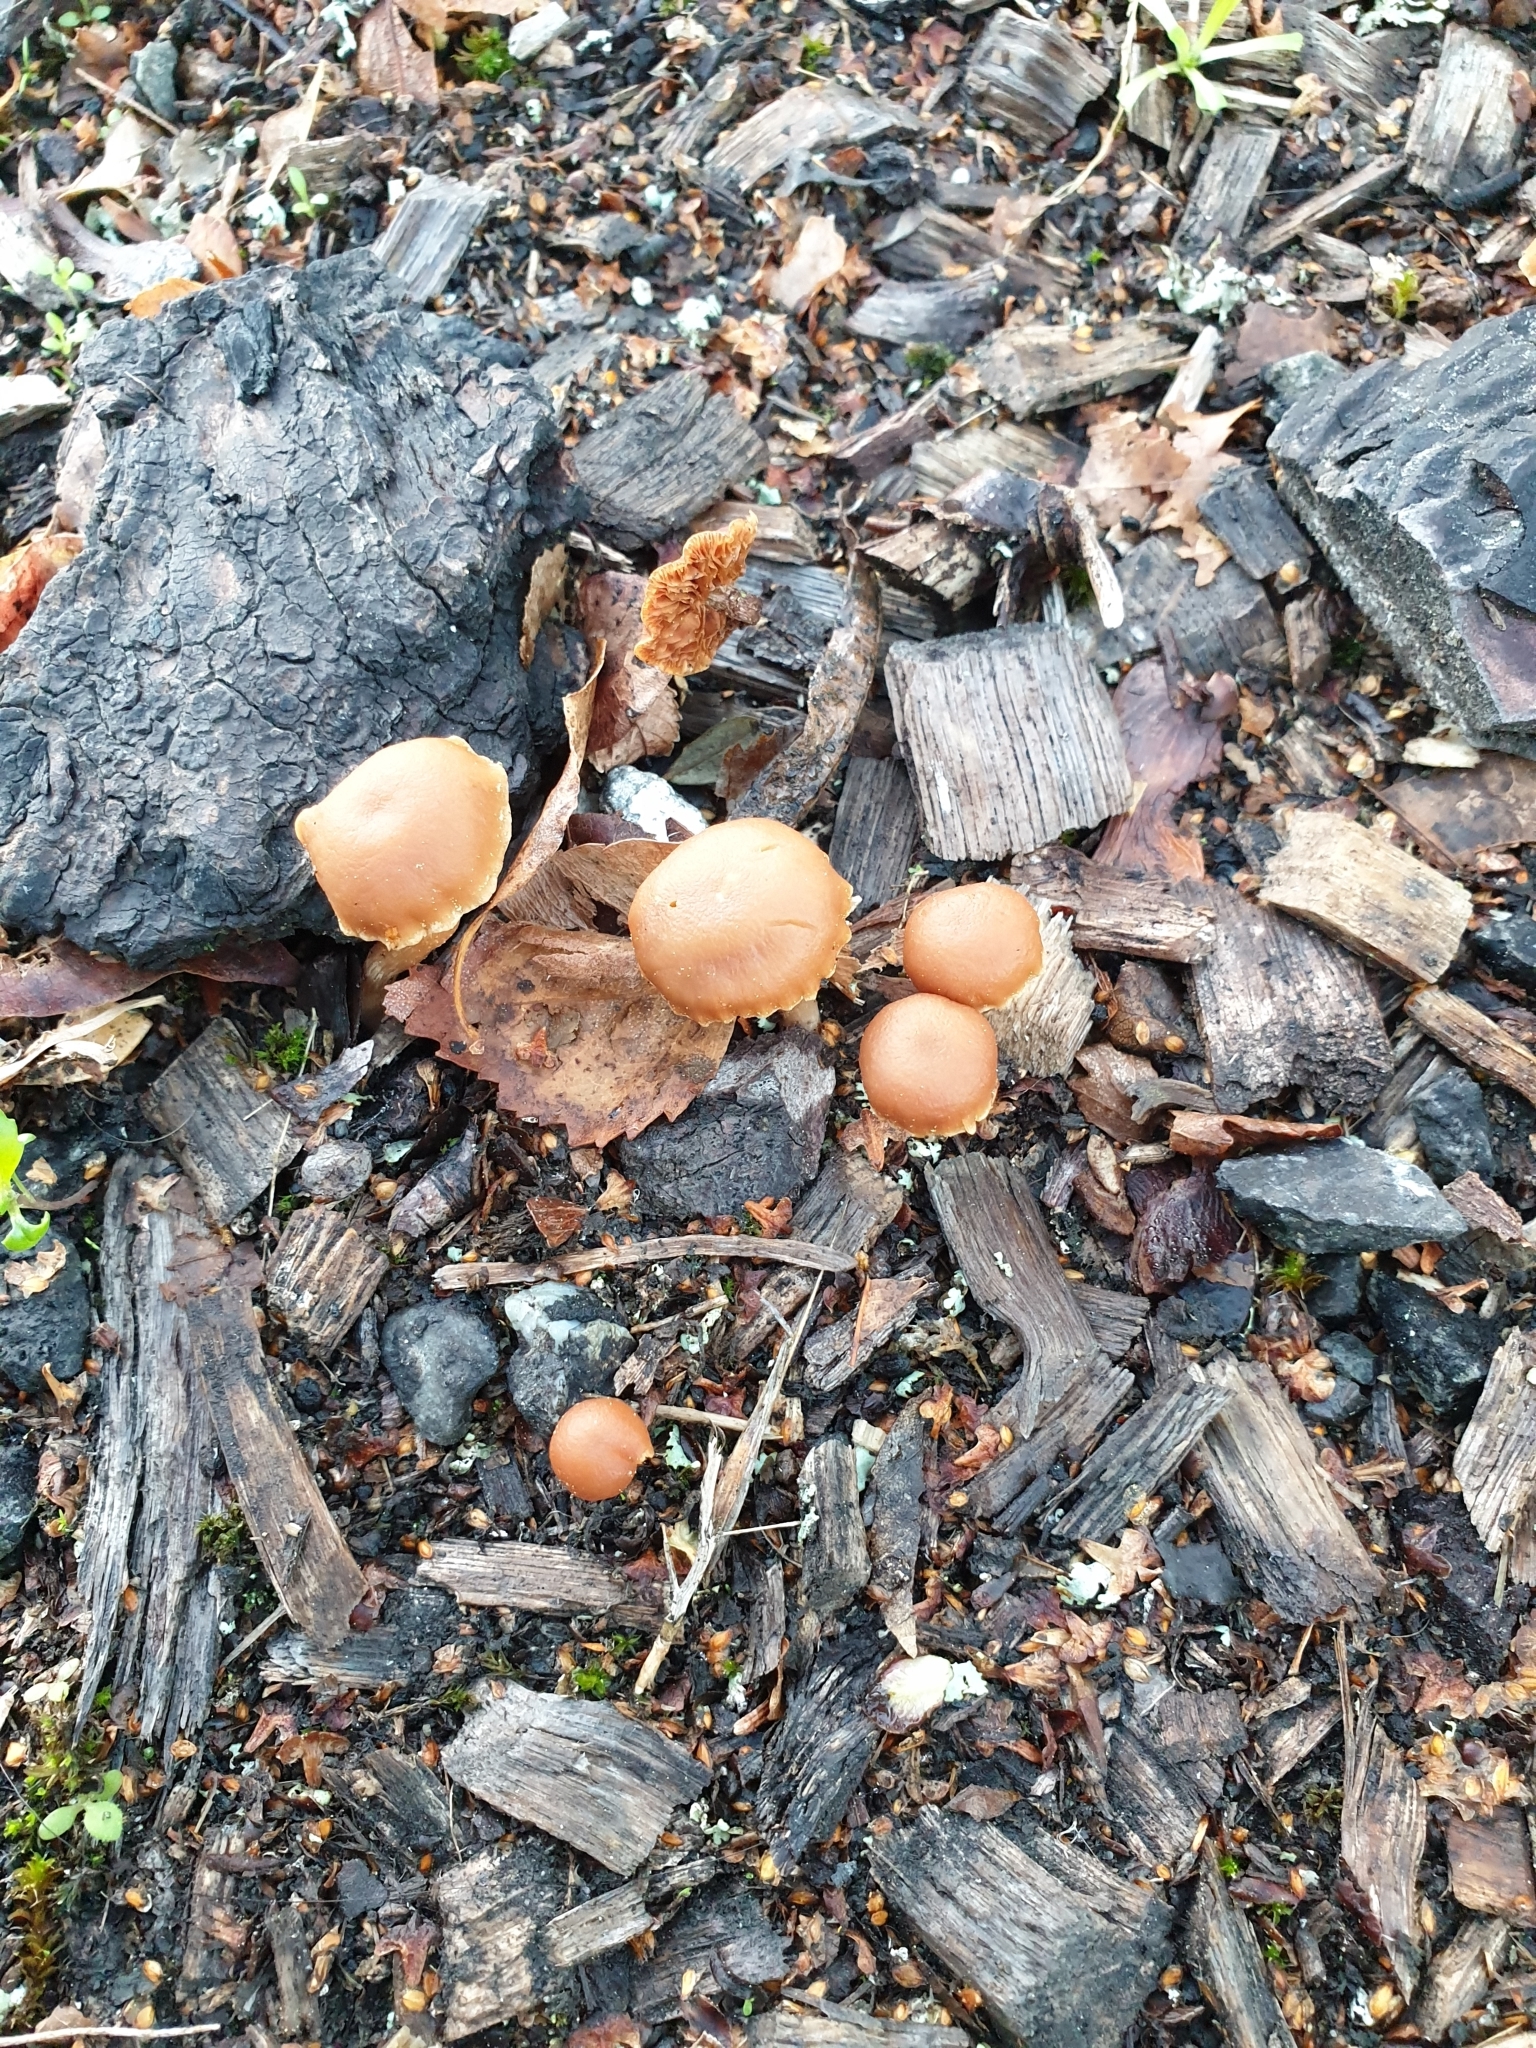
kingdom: Fungi
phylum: Basidiomycota
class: Agaricomycetes
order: Agaricales
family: Tubariaceae
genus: Tubaria
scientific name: Tubaria furfuracea
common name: Scurfy twiglet
